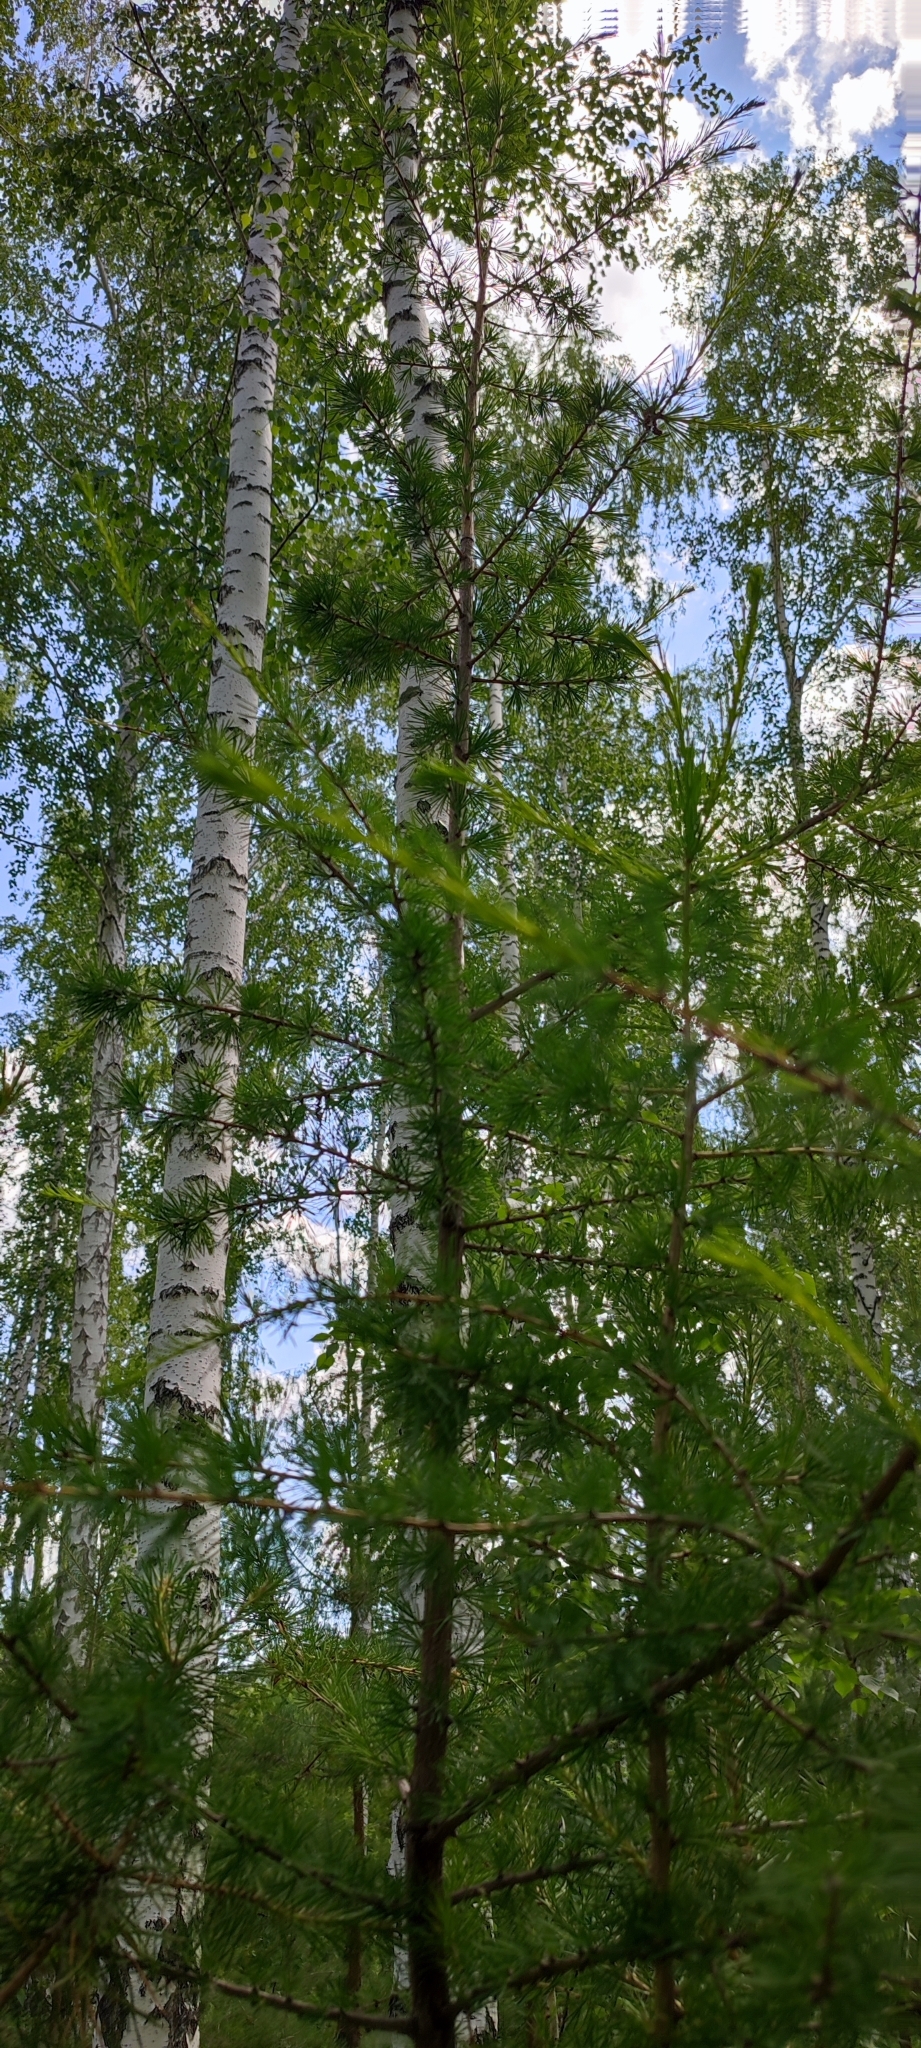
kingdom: Plantae
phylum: Tracheophyta
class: Pinopsida
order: Pinales
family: Pinaceae
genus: Larix
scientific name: Larix sibirica
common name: Siberian larch
